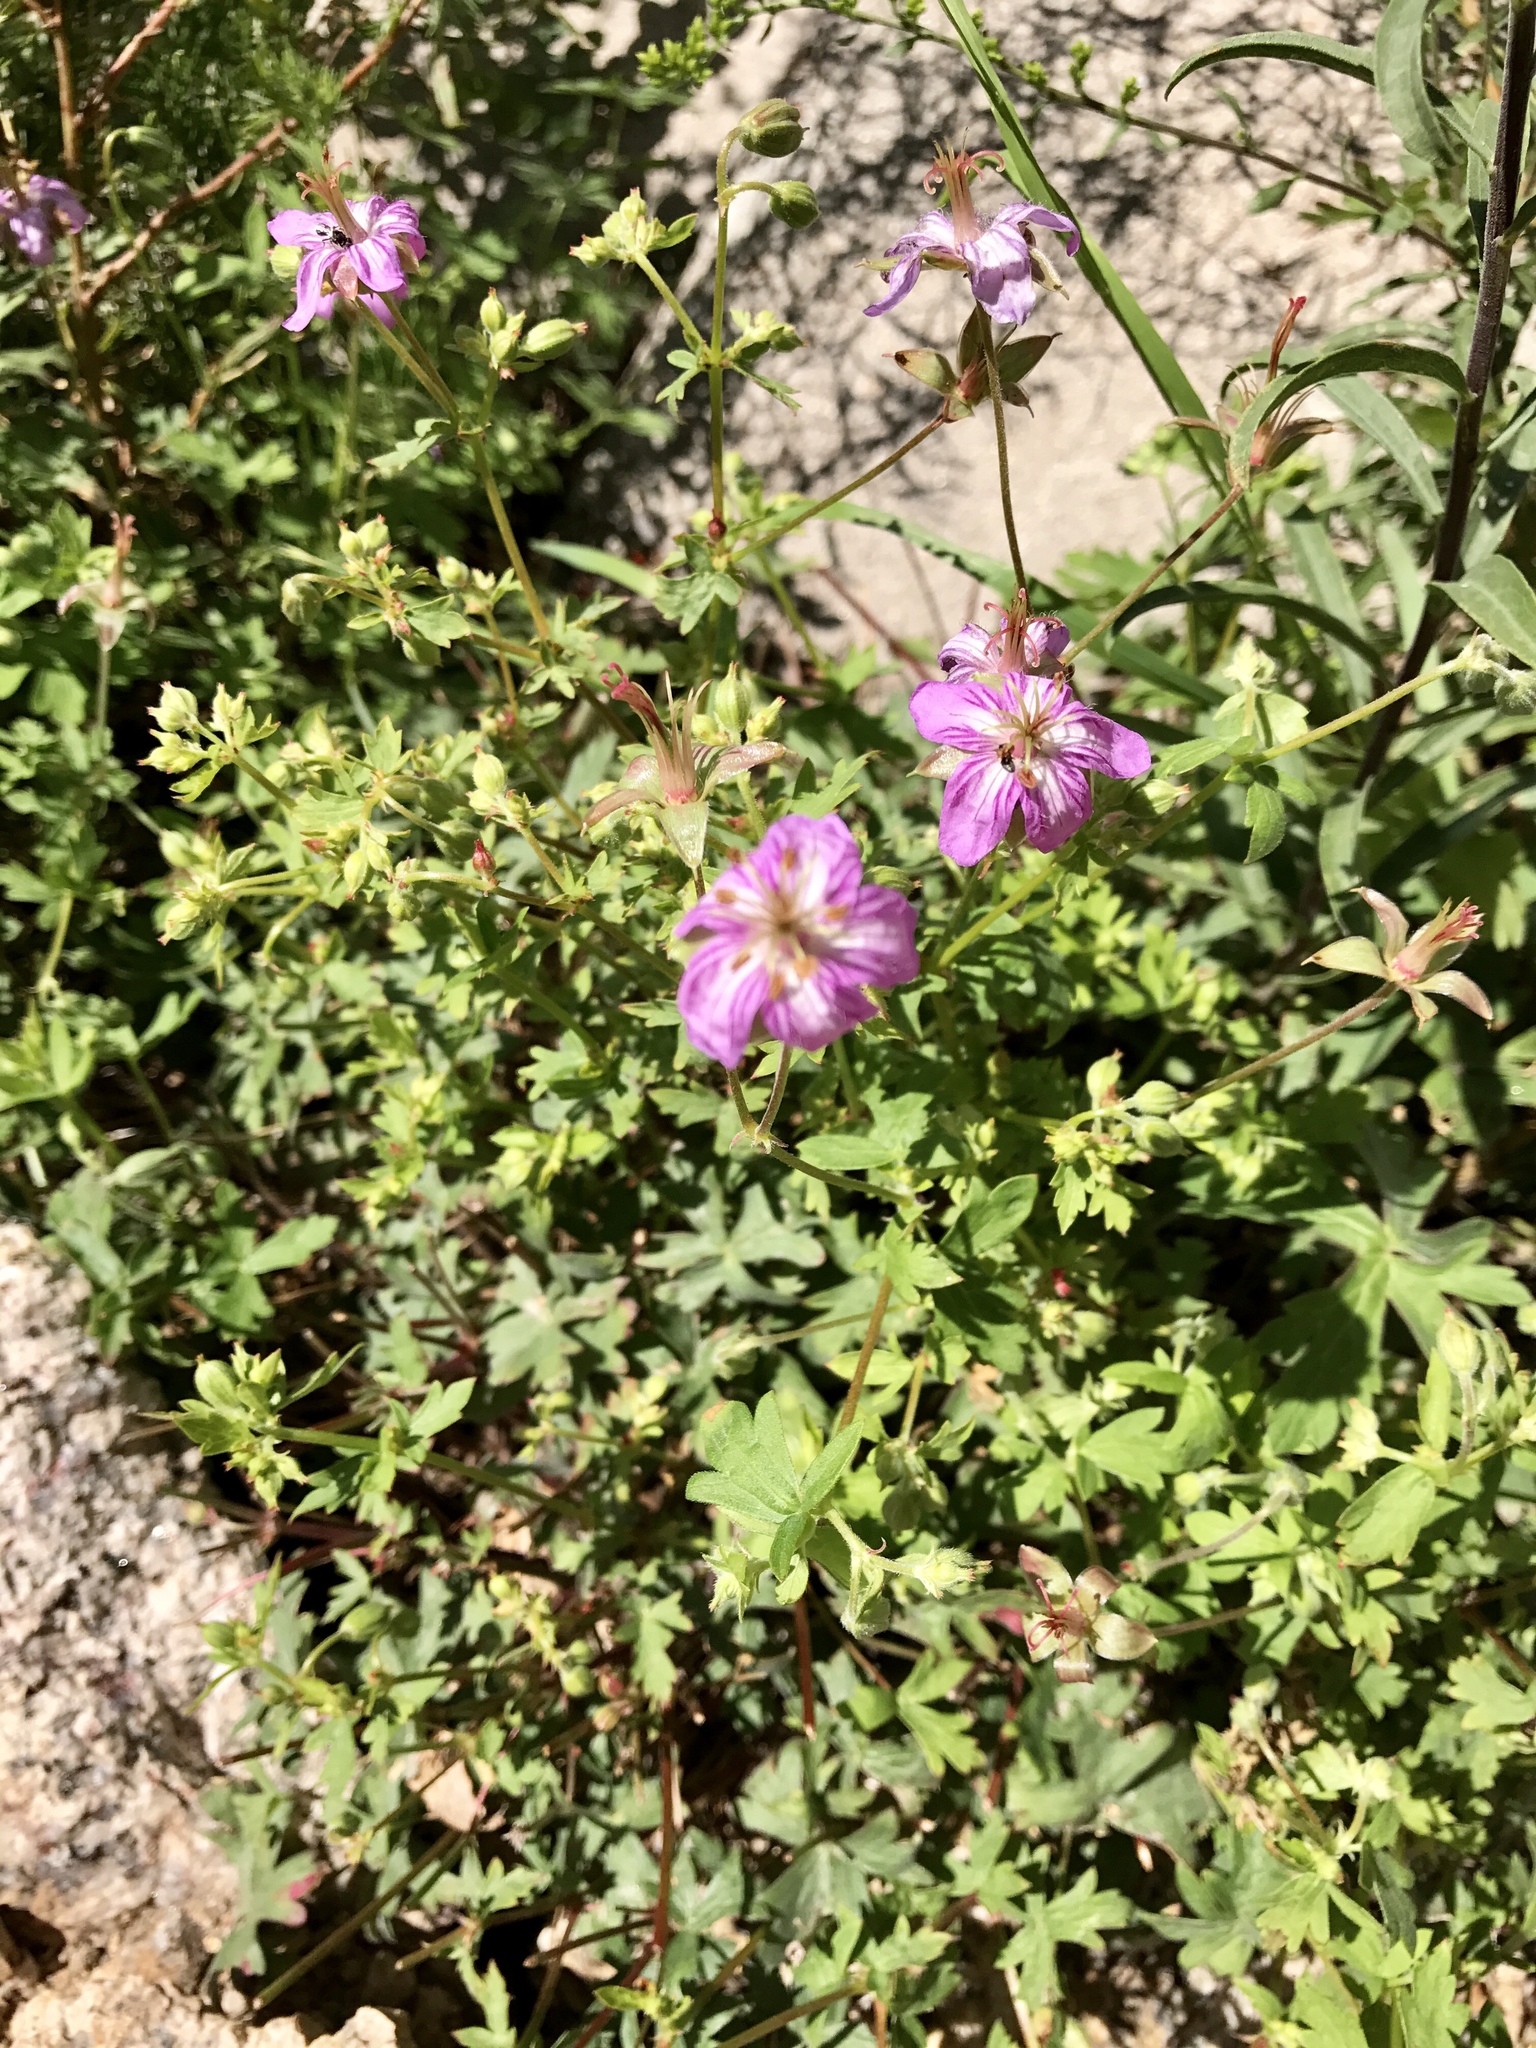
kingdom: Plantae
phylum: Tracheophyta
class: Magnoliopsida
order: Geraniales
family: Geraniaceae
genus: Geranium
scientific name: Geranium caespitosum
